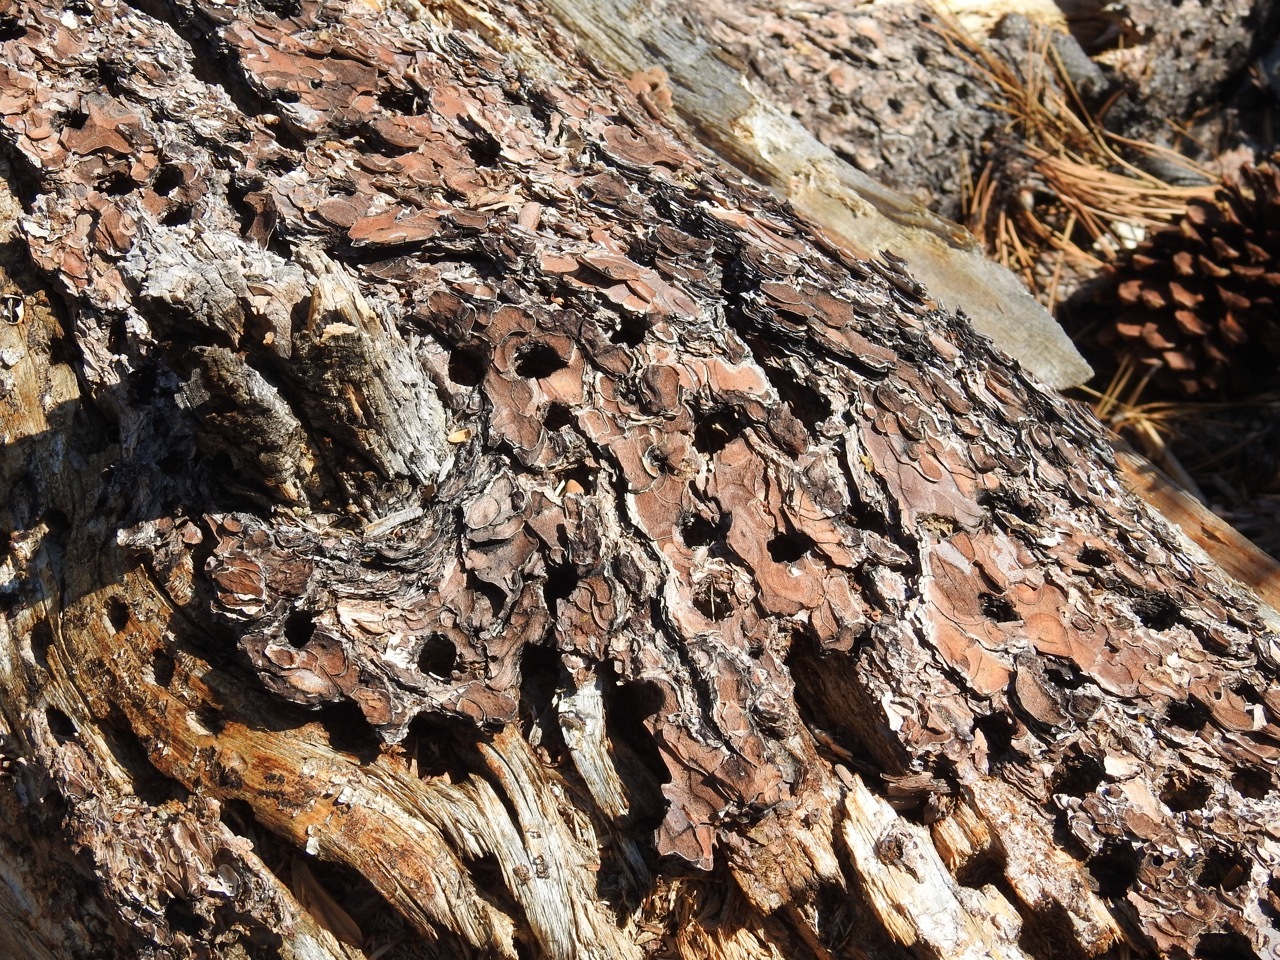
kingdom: Animalia
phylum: Chordata
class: Aves
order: Piciformes
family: Picidae
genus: Melanerpes
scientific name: Melanerpes formicivorus
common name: Acorn woodpecker
